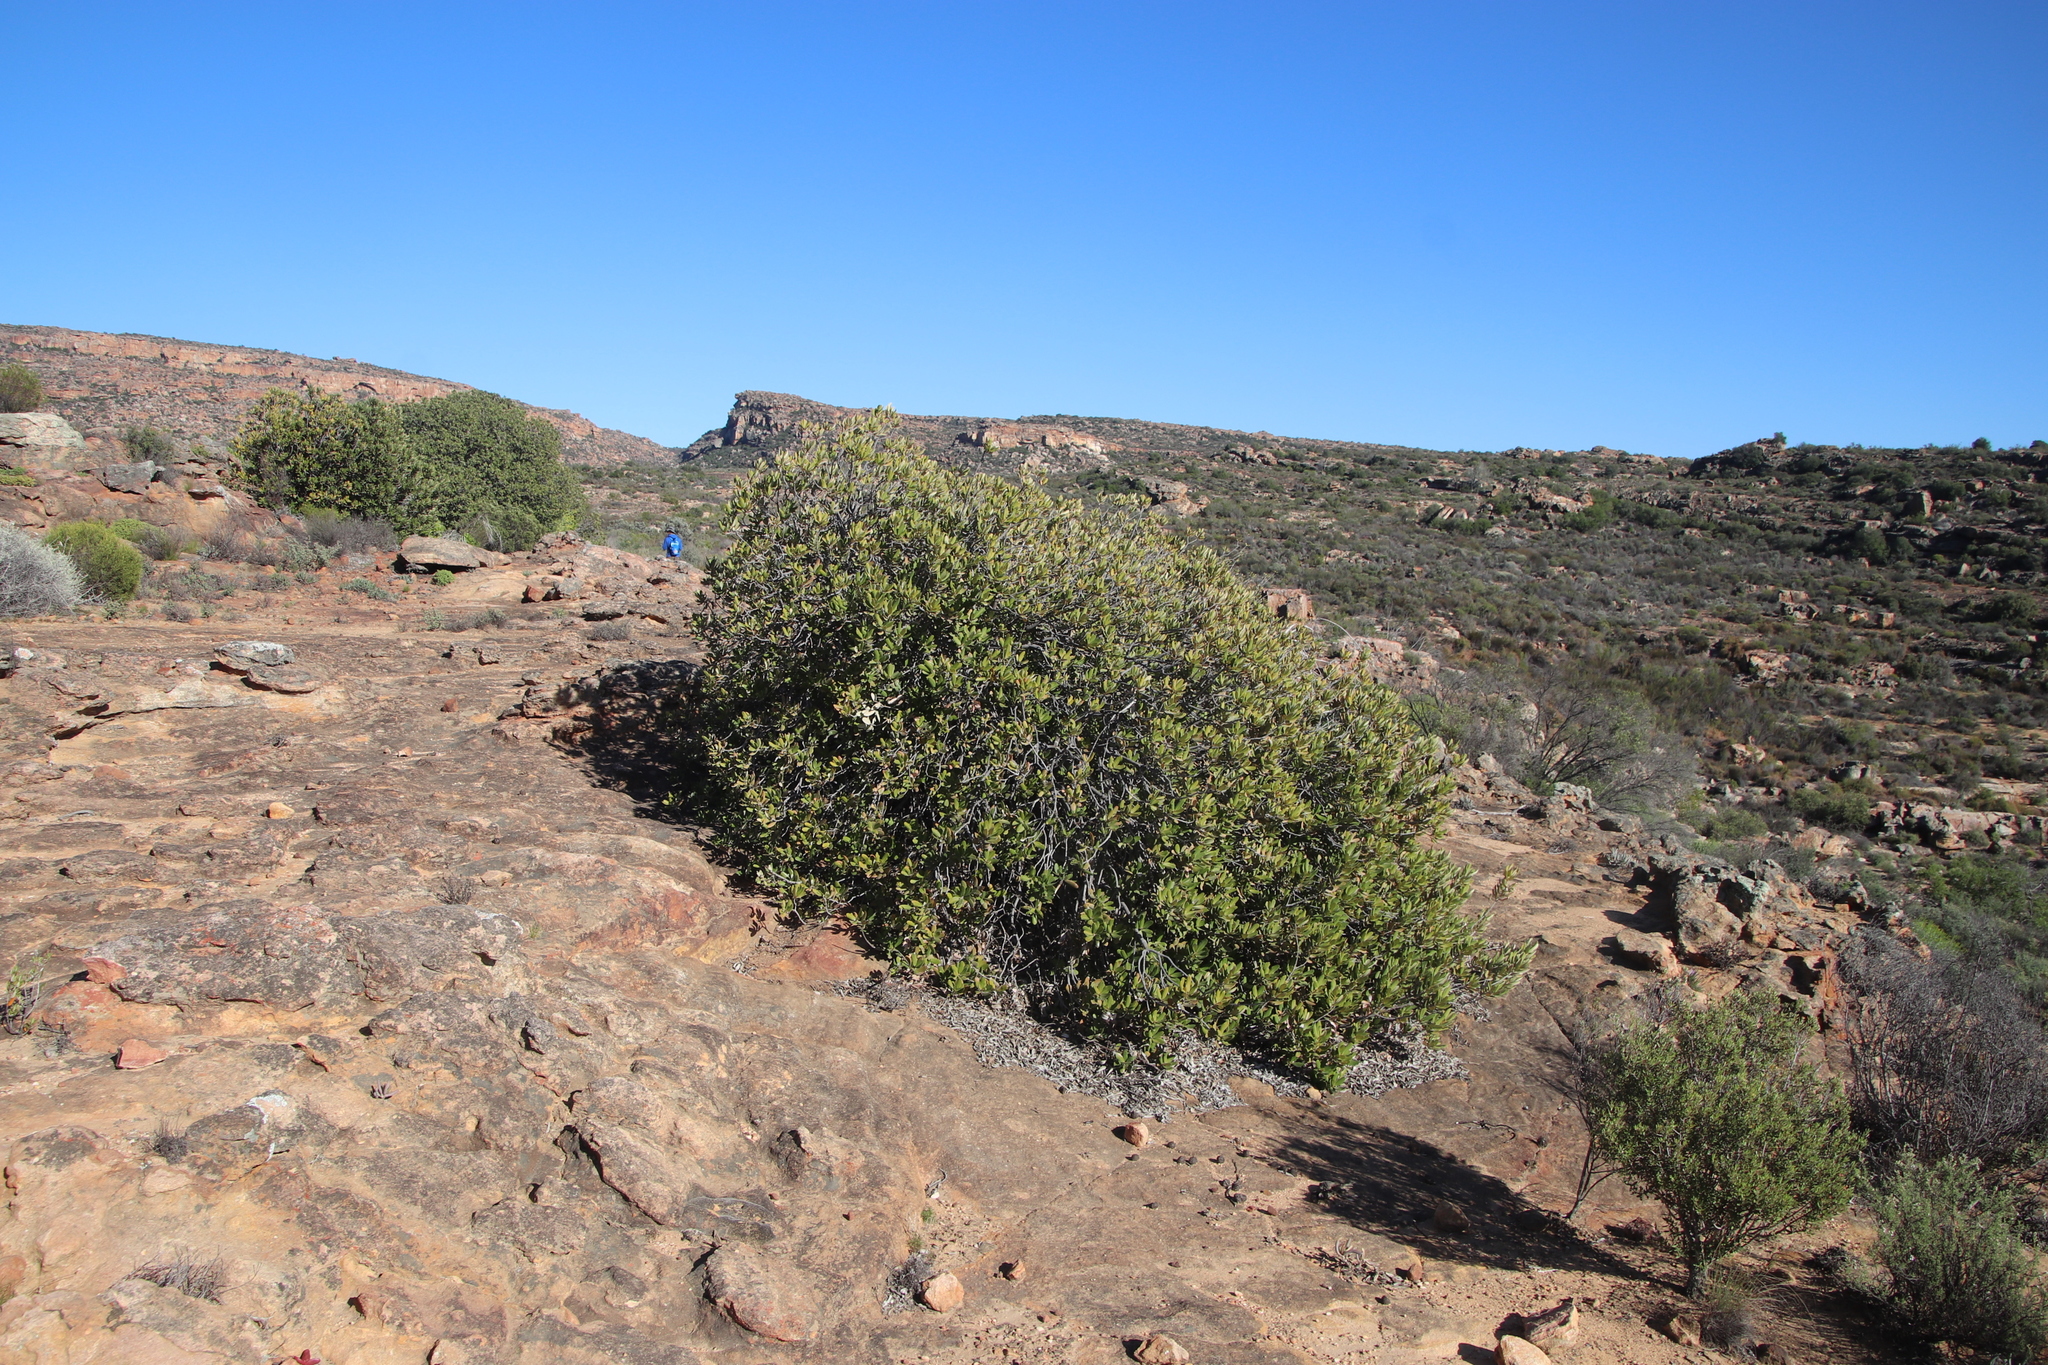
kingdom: Plantae
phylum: Tracheophyta
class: Magnoliopsida
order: Sapindales
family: Anacardiaceae
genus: Heeria
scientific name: Heeria argentea
